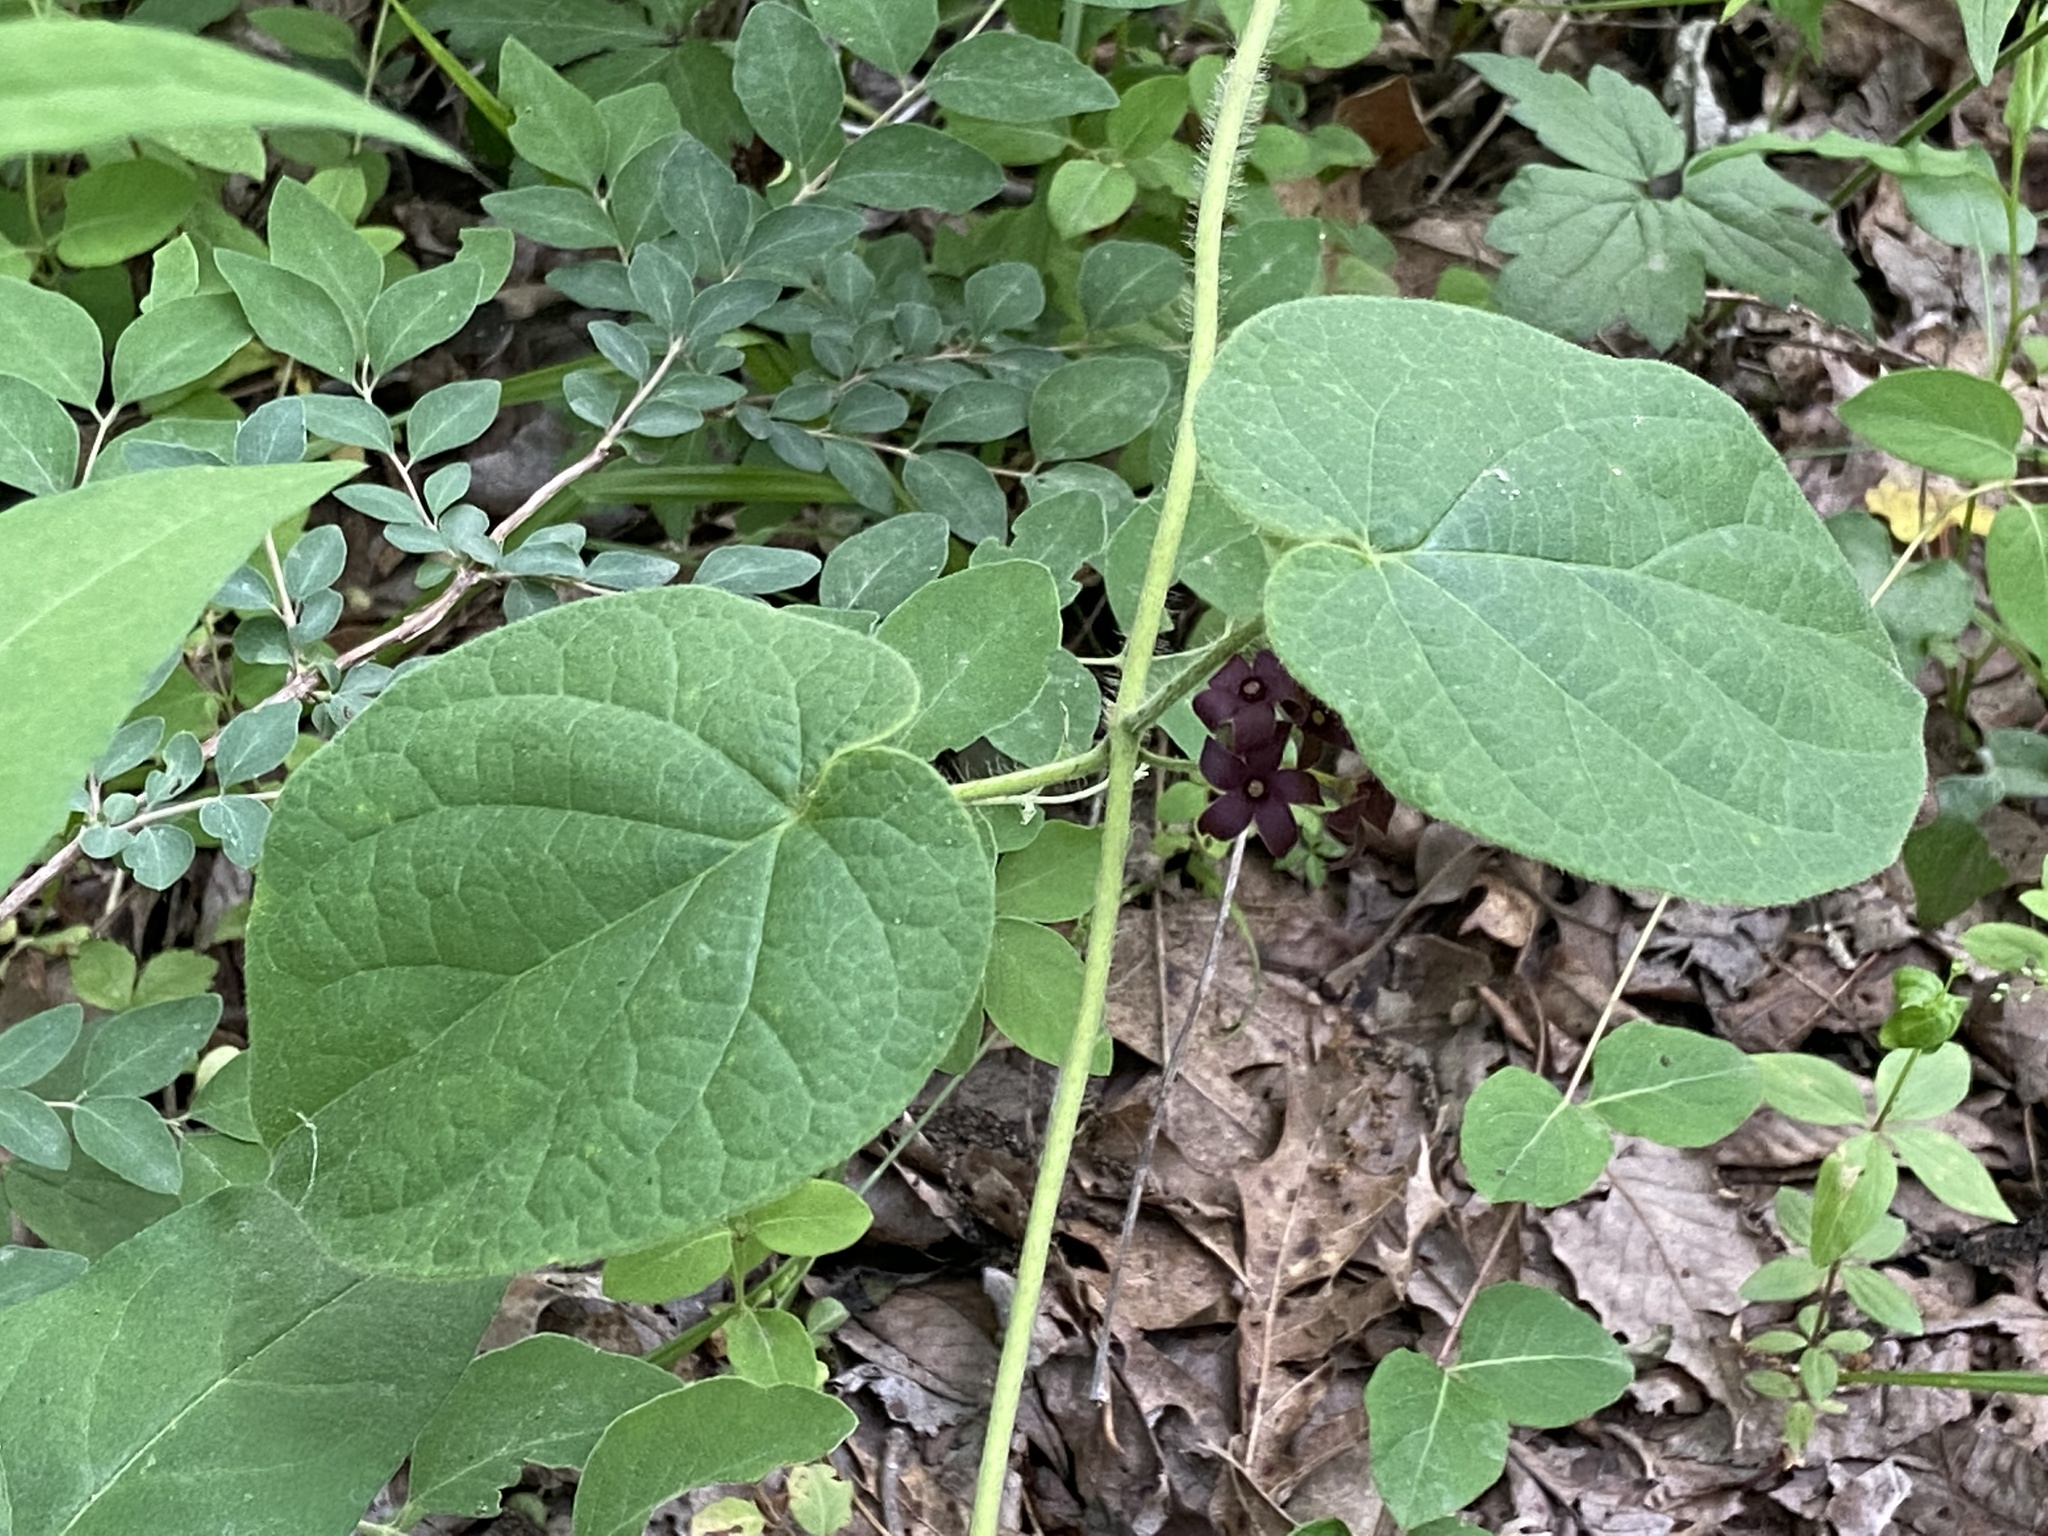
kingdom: Plantae
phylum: Tracheophyta
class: Magnoliopsida
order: Gentianales
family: Apocynaceae
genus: Matelea
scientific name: Matelea carolinensis
